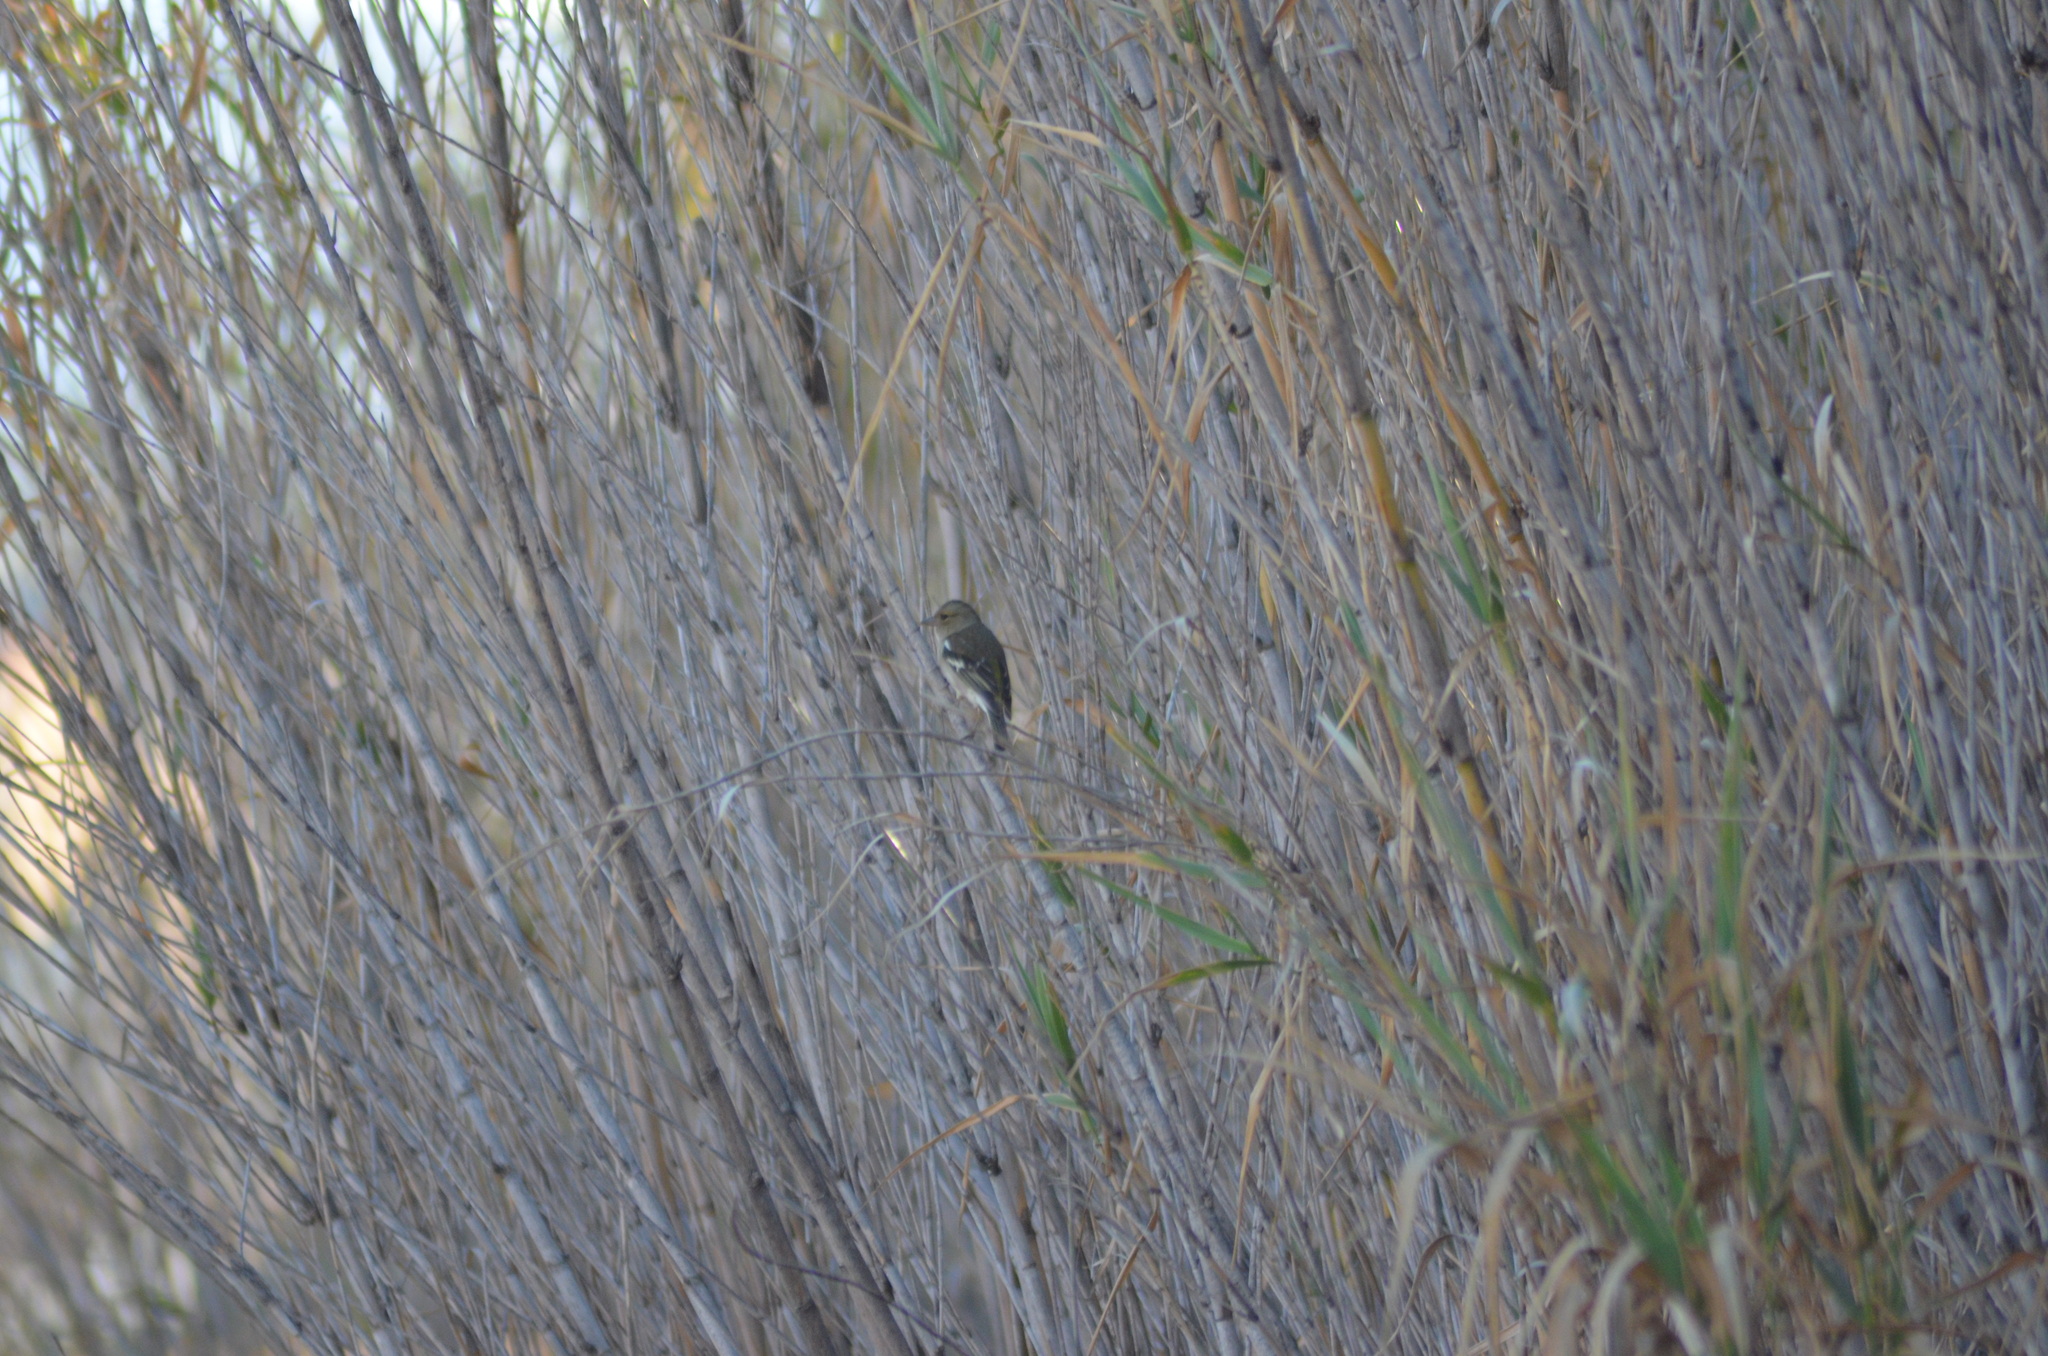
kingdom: Animalia
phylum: Chordata
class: Aves
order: Passeriformes
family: Fringillidae
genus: Fringilla
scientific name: Fringilla coelebs
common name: Common chaffinch
